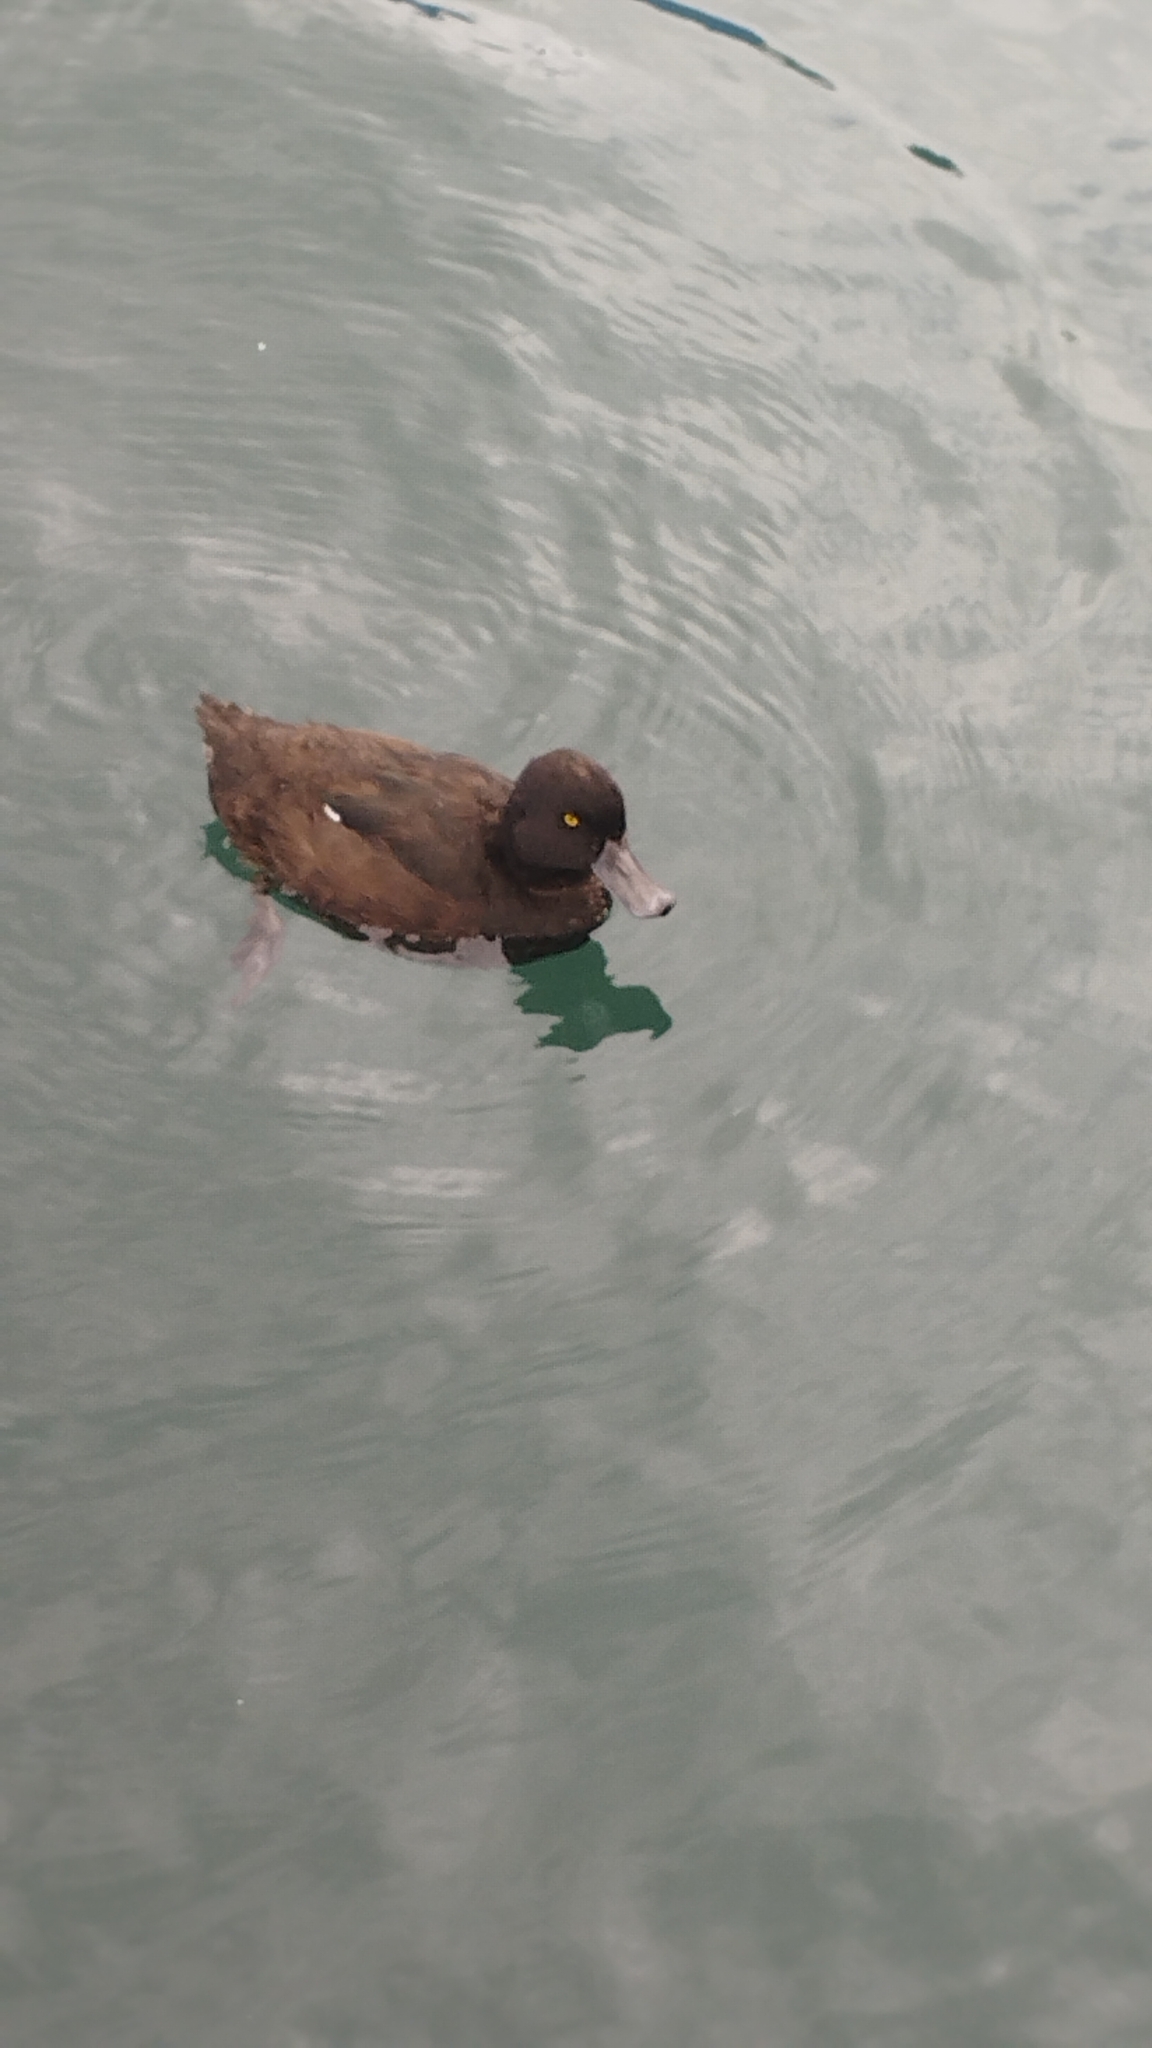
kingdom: Animalia
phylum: Chordata
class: Aves
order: Anseriformes
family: Anatidae
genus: Aythya
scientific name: Aythya novaeseelandiae
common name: New zealand scaup
